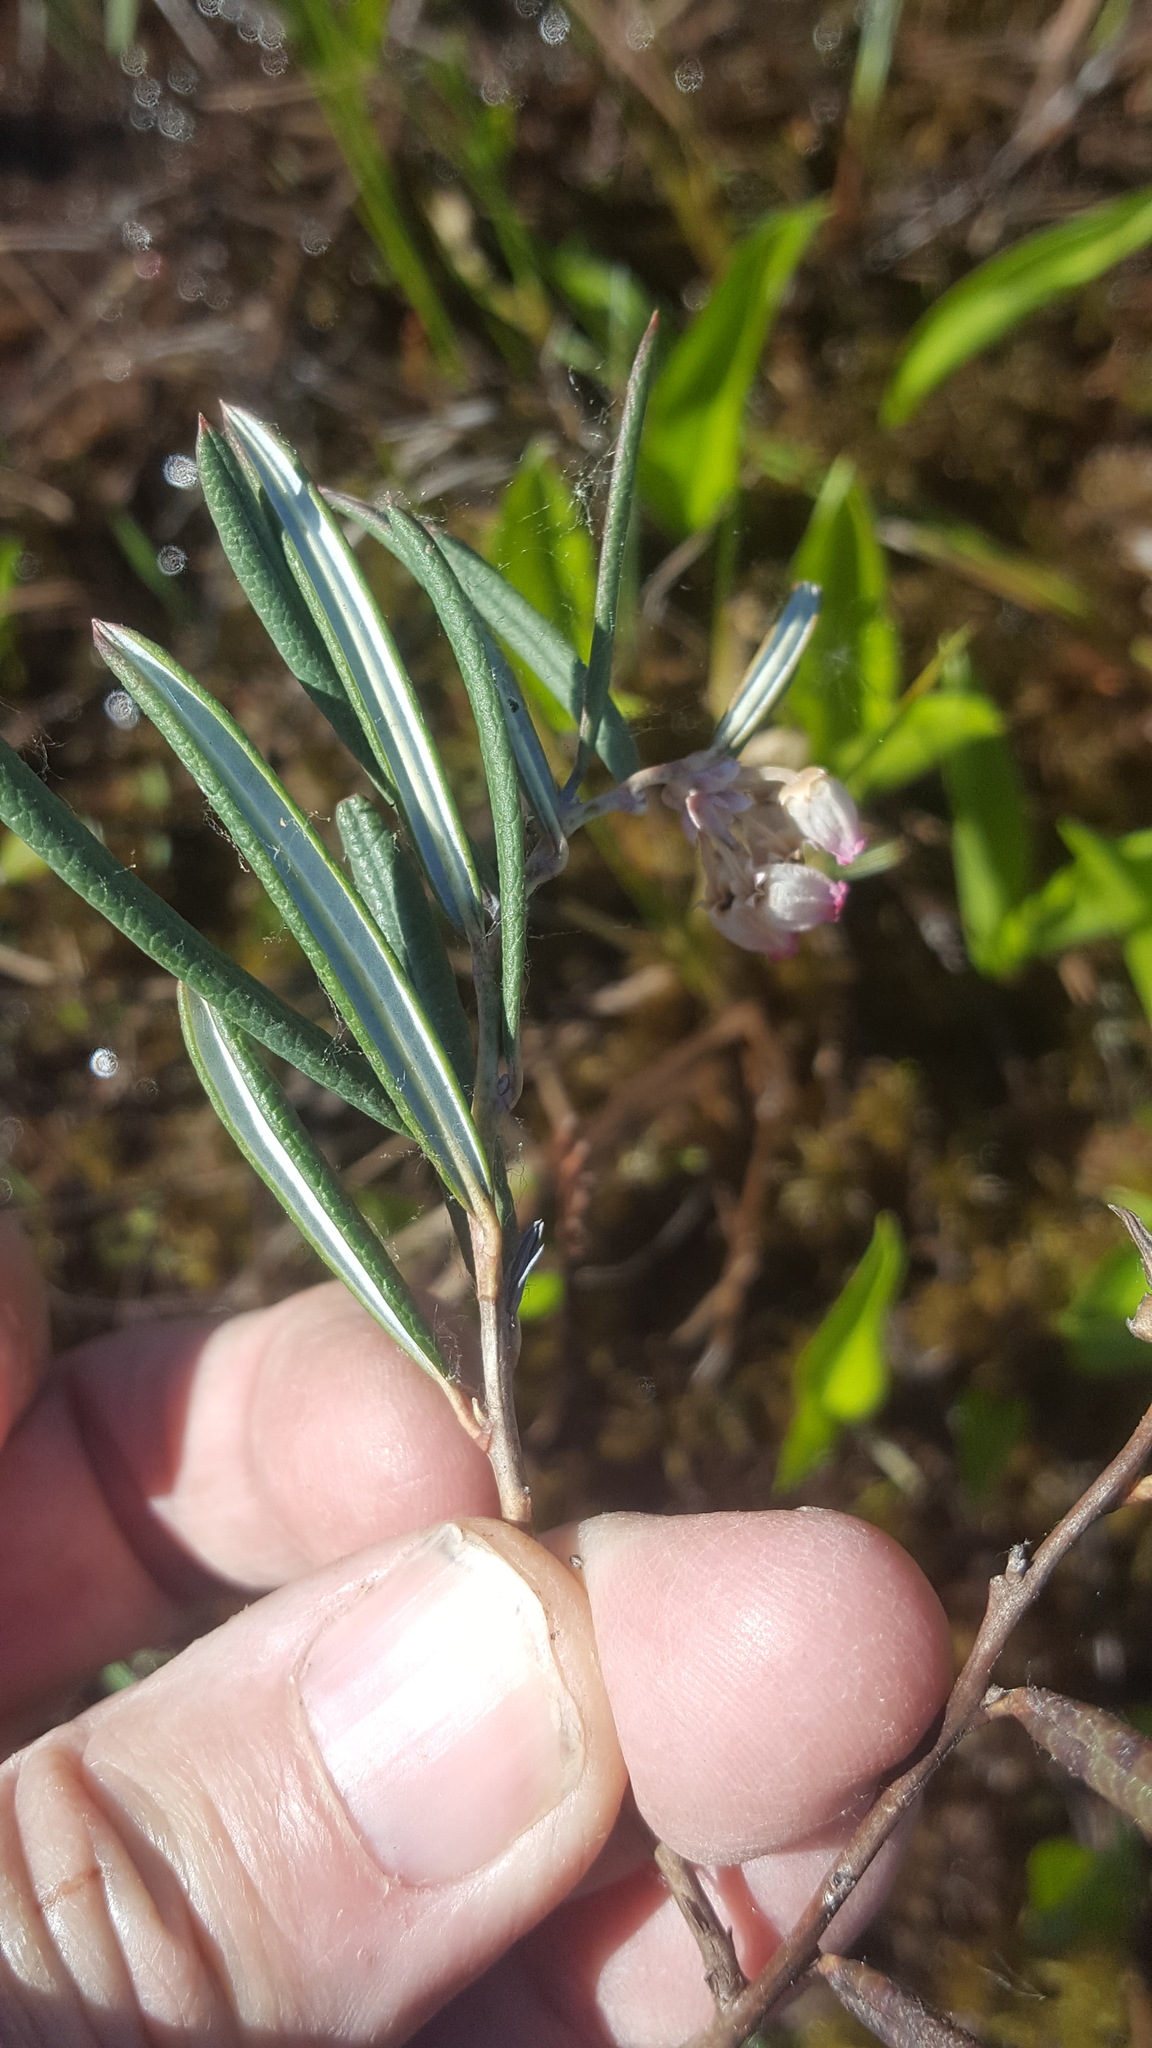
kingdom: Plantae
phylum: Tracheophyta
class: Magnoliopsida
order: Ericales
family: Ericaceae
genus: Andromeda
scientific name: Andromeda polifolia
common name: Bog-rosemary
